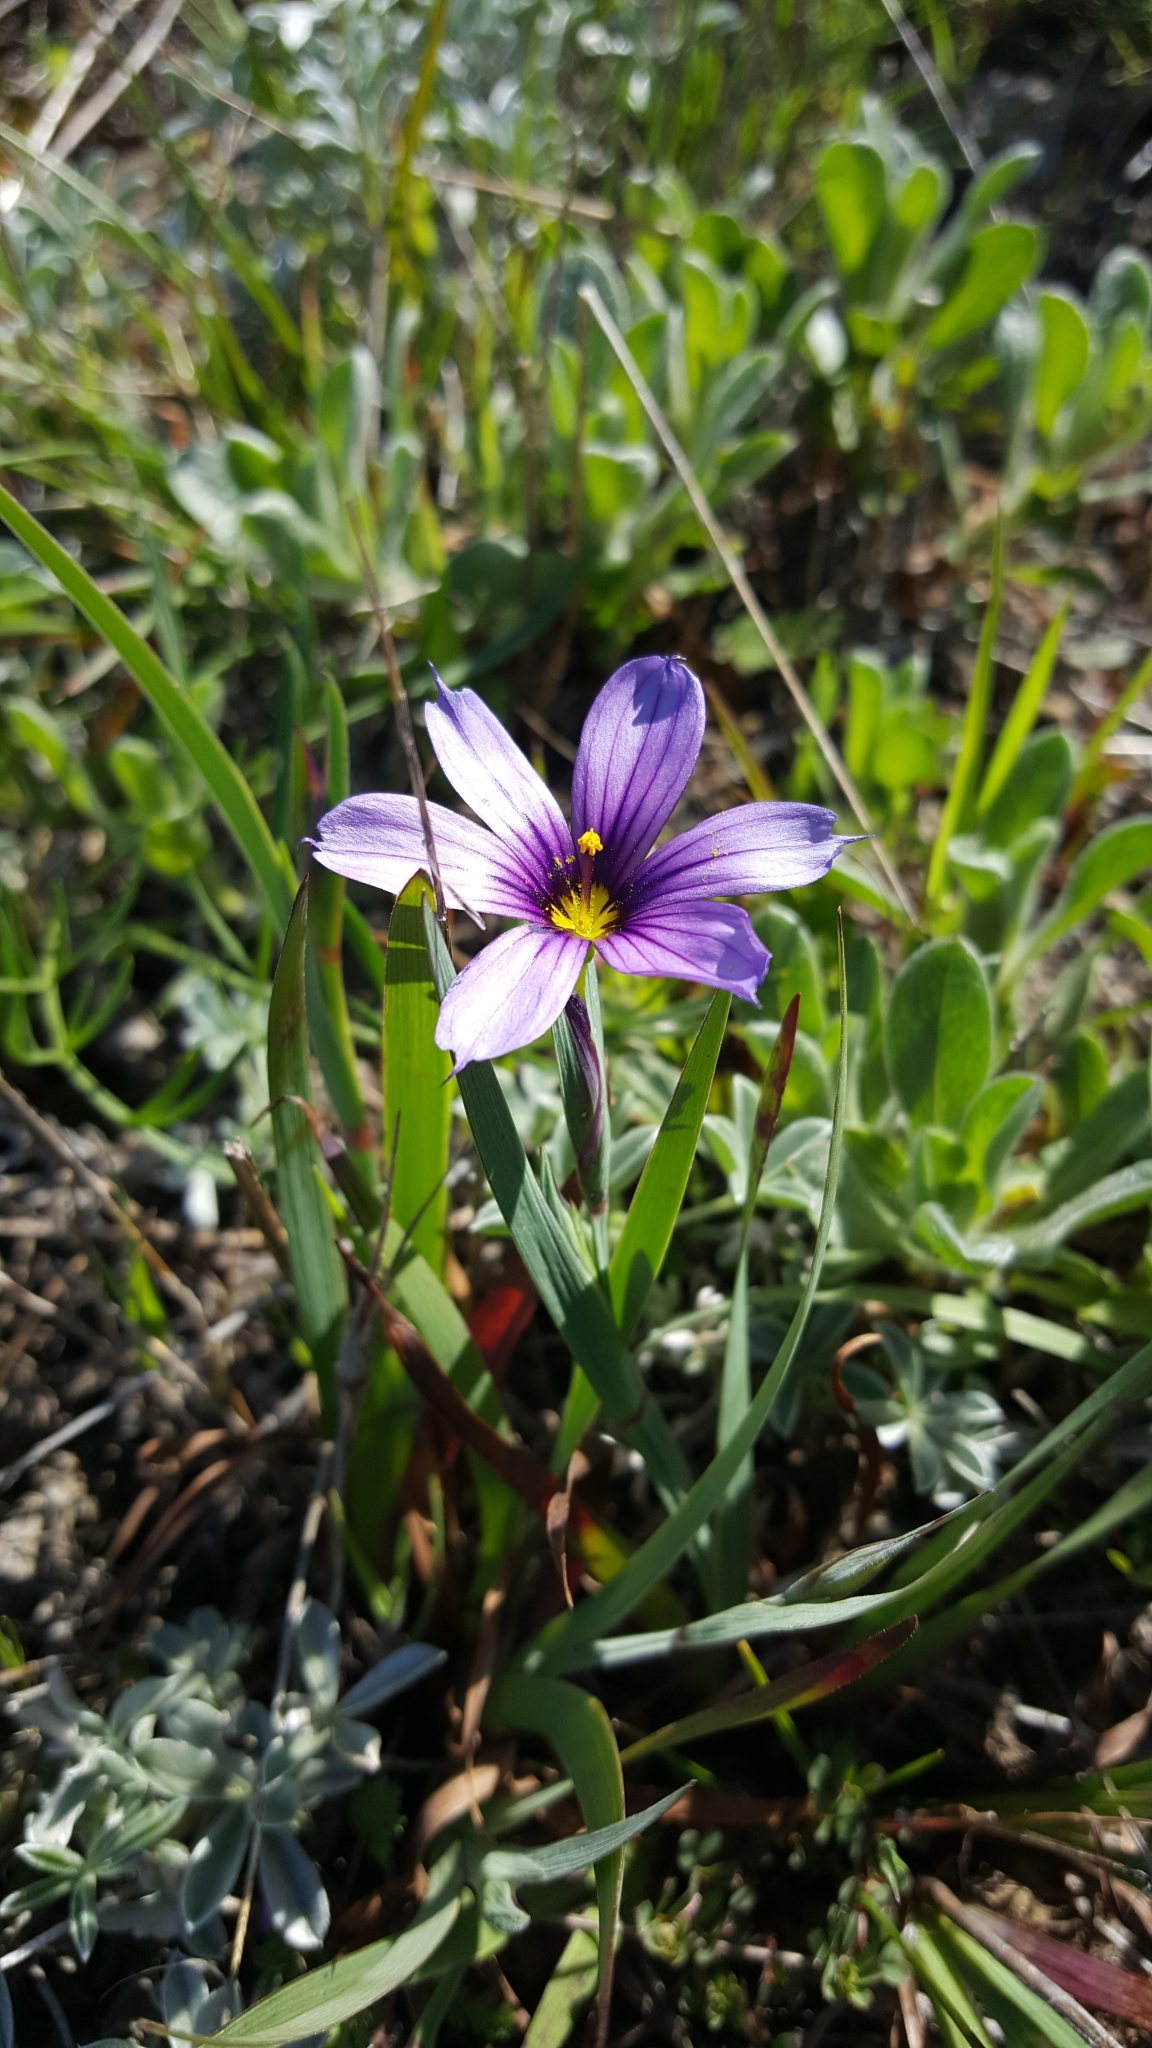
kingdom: Plantae
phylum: Tracheophyta
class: Liliopsida
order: Asparagales
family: Iridaceae
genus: Sisyrinchium
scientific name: Sisyrinchium bellum
